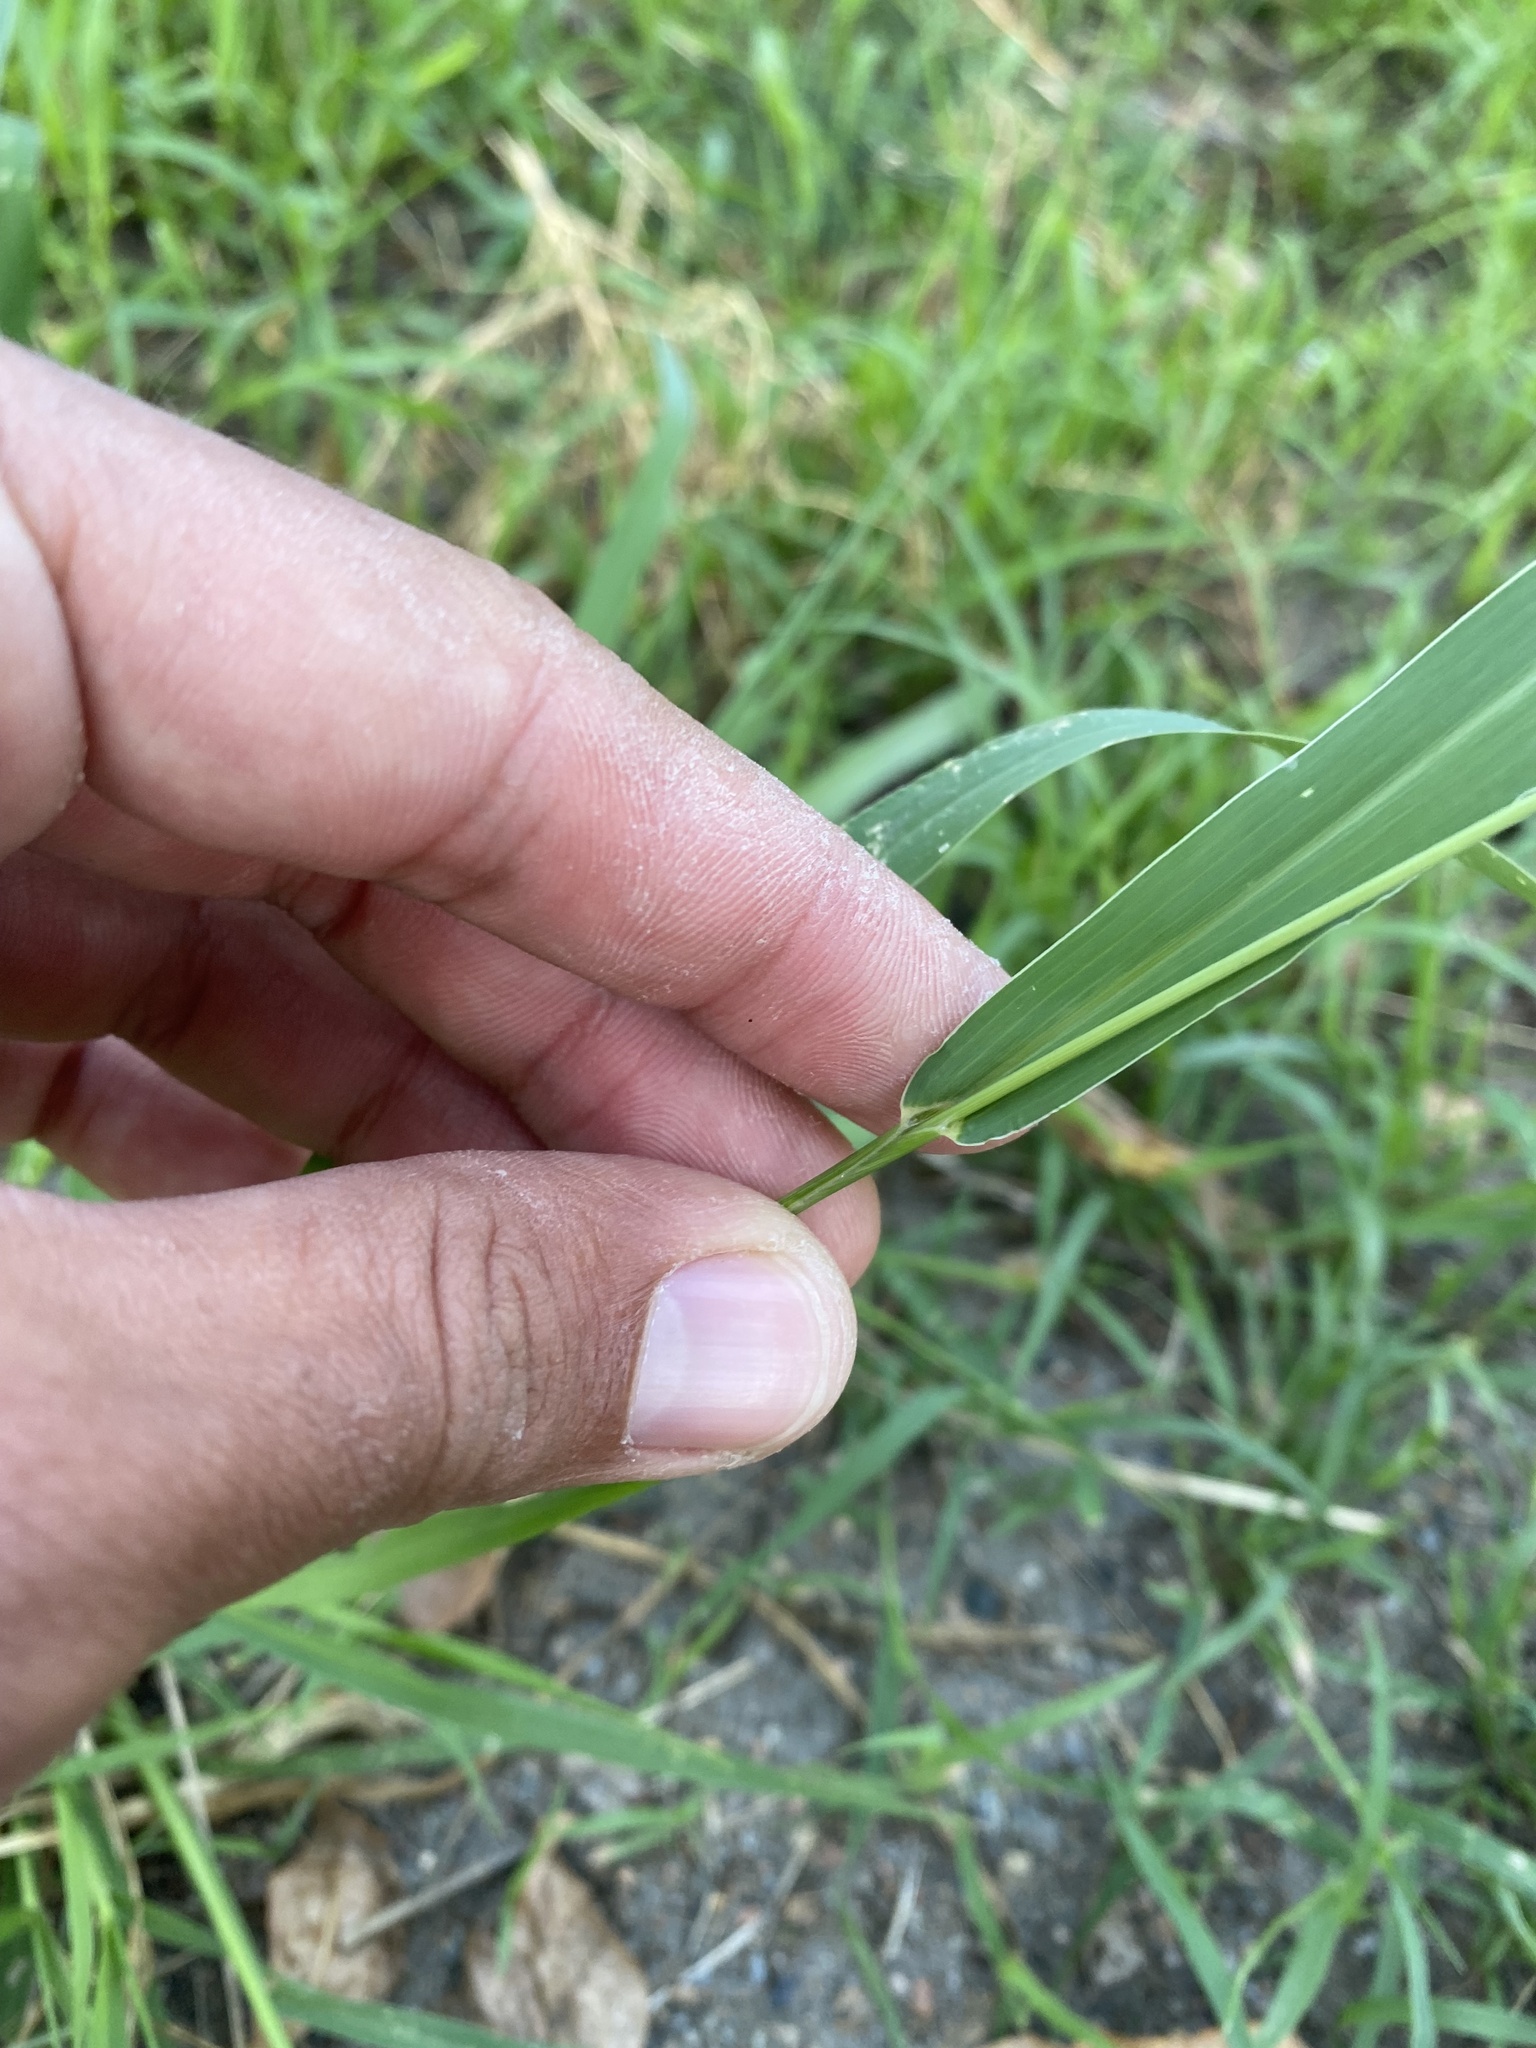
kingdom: Plantae
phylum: Tracheophyta
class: Liliopsida
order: Poales
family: Poaceae
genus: Setaria
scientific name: Setaria viridis
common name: Green bristlegrass
